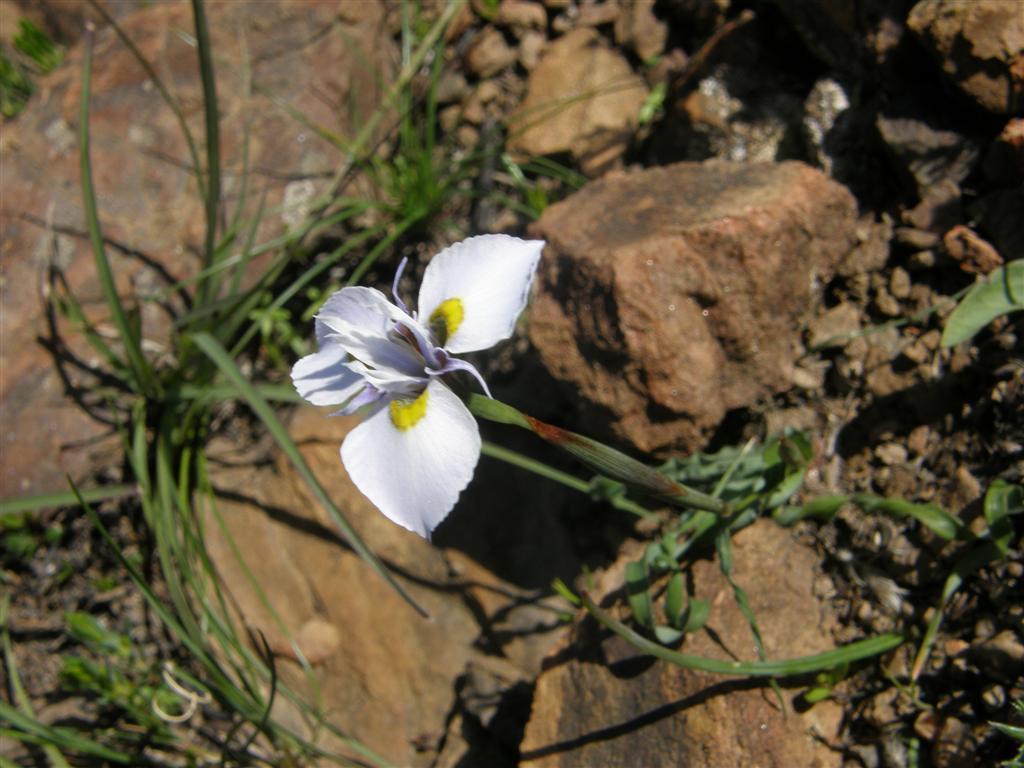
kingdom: Plantae
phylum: Tracheophyta
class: Liliopsida
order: Asparagales
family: Iridaceae
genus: Moraea
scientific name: Moraea fergusoniae
